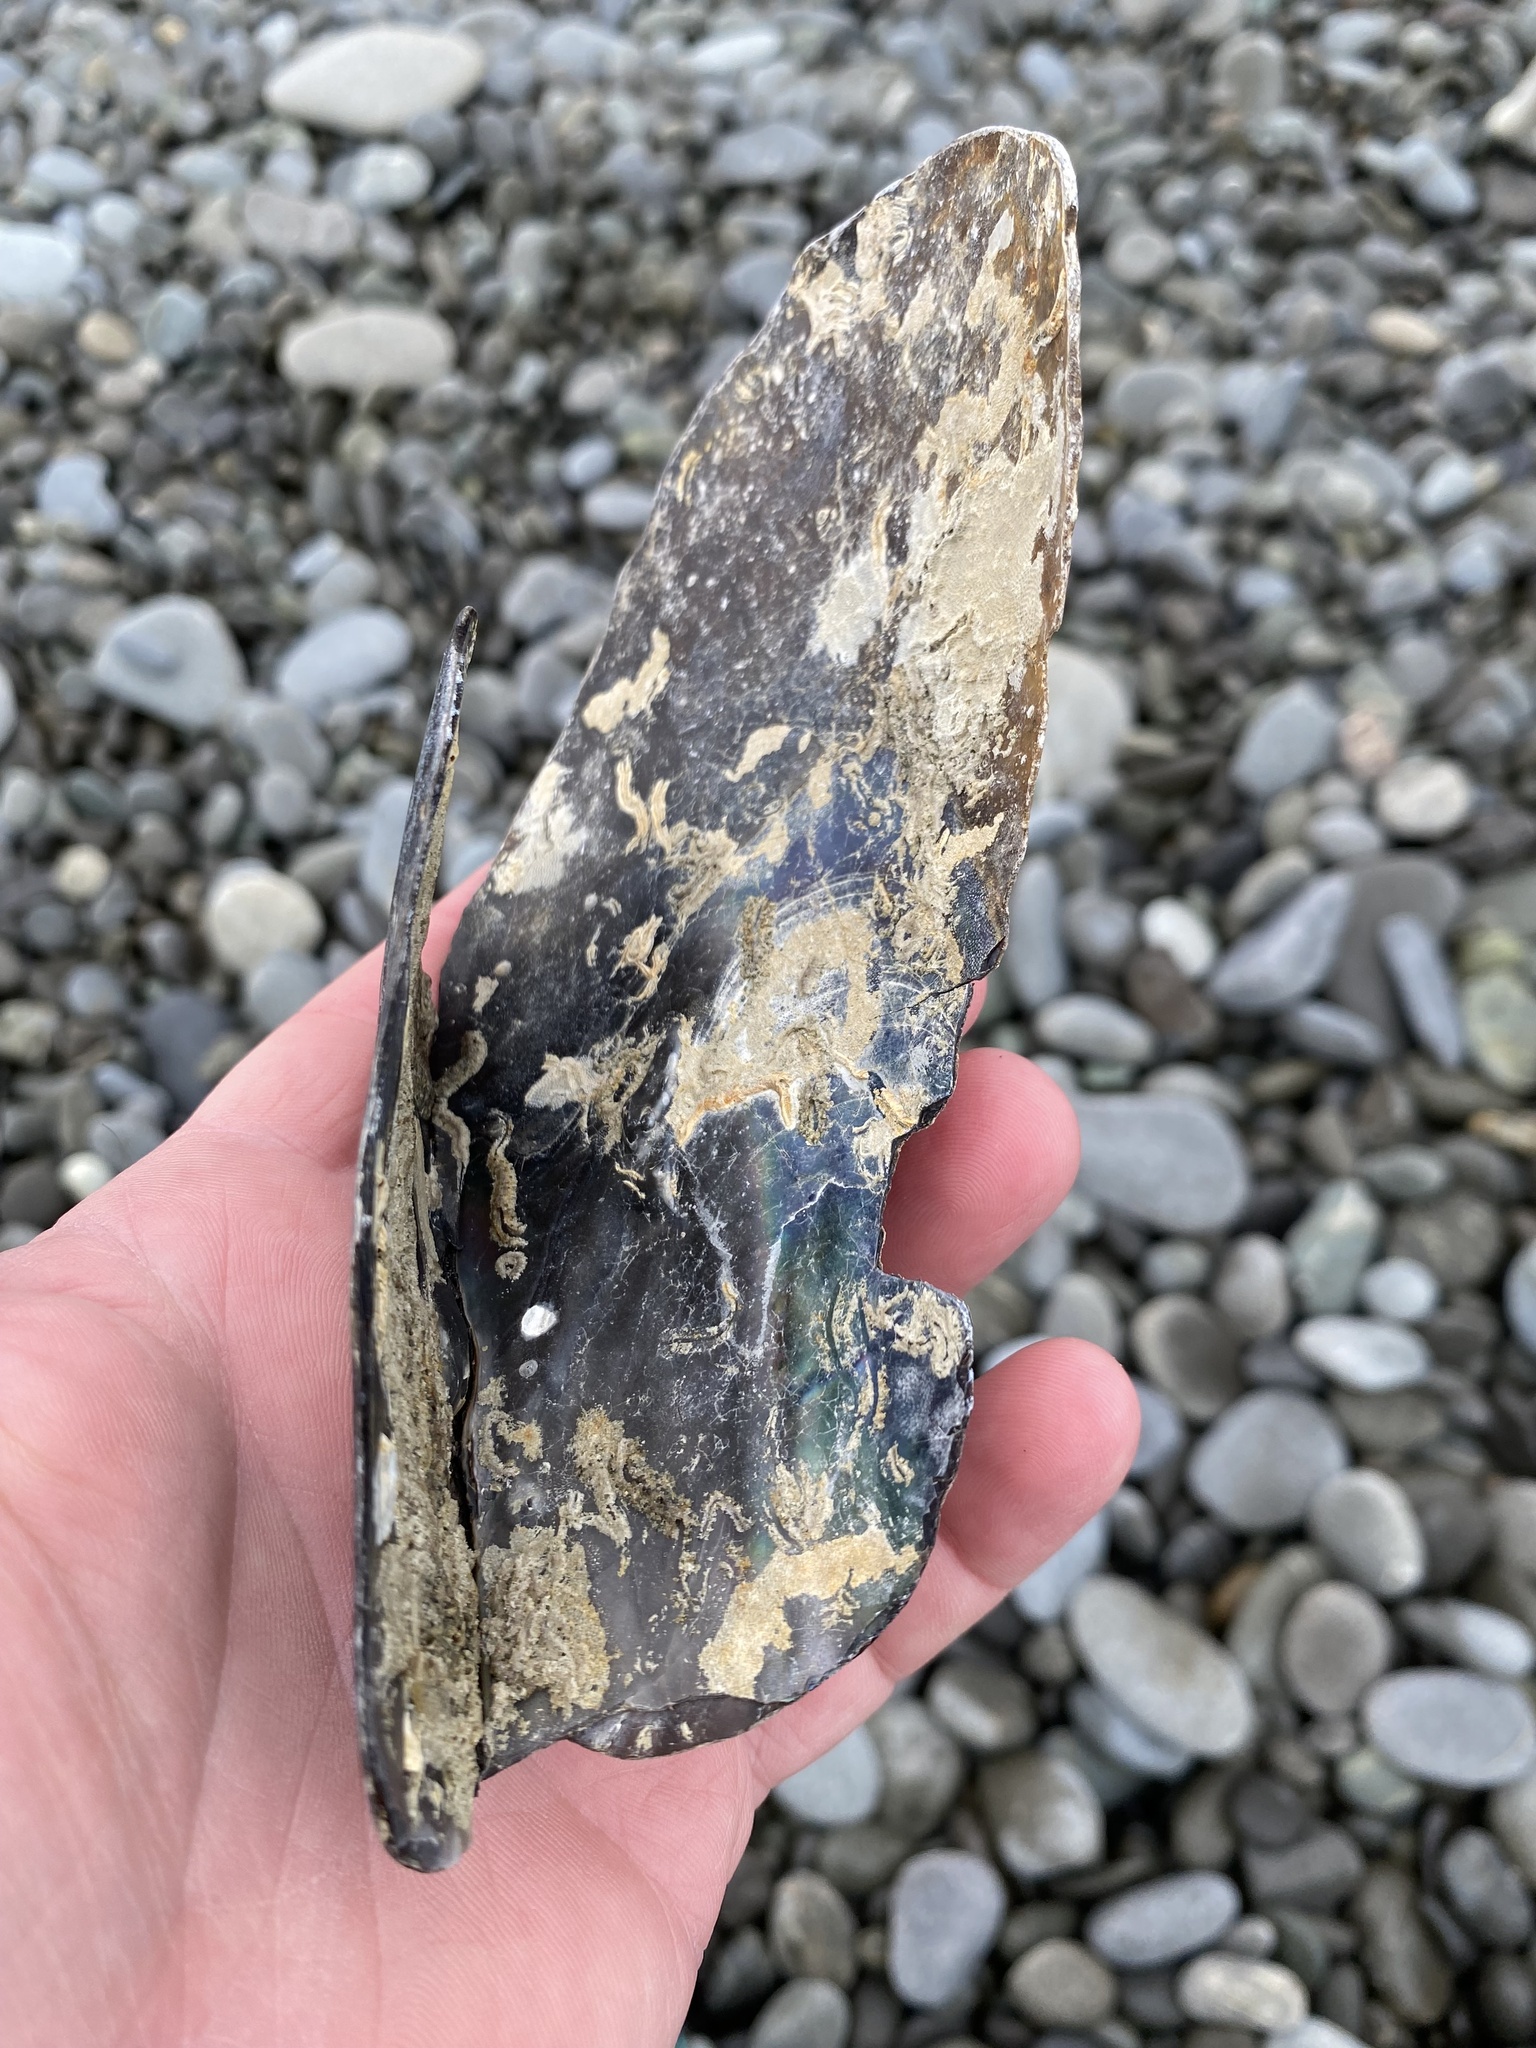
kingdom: Animalia
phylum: Mollusca
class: Bivalvia
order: Ostreida
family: Pinnidae
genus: Atrina
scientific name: Atrina zelandica
